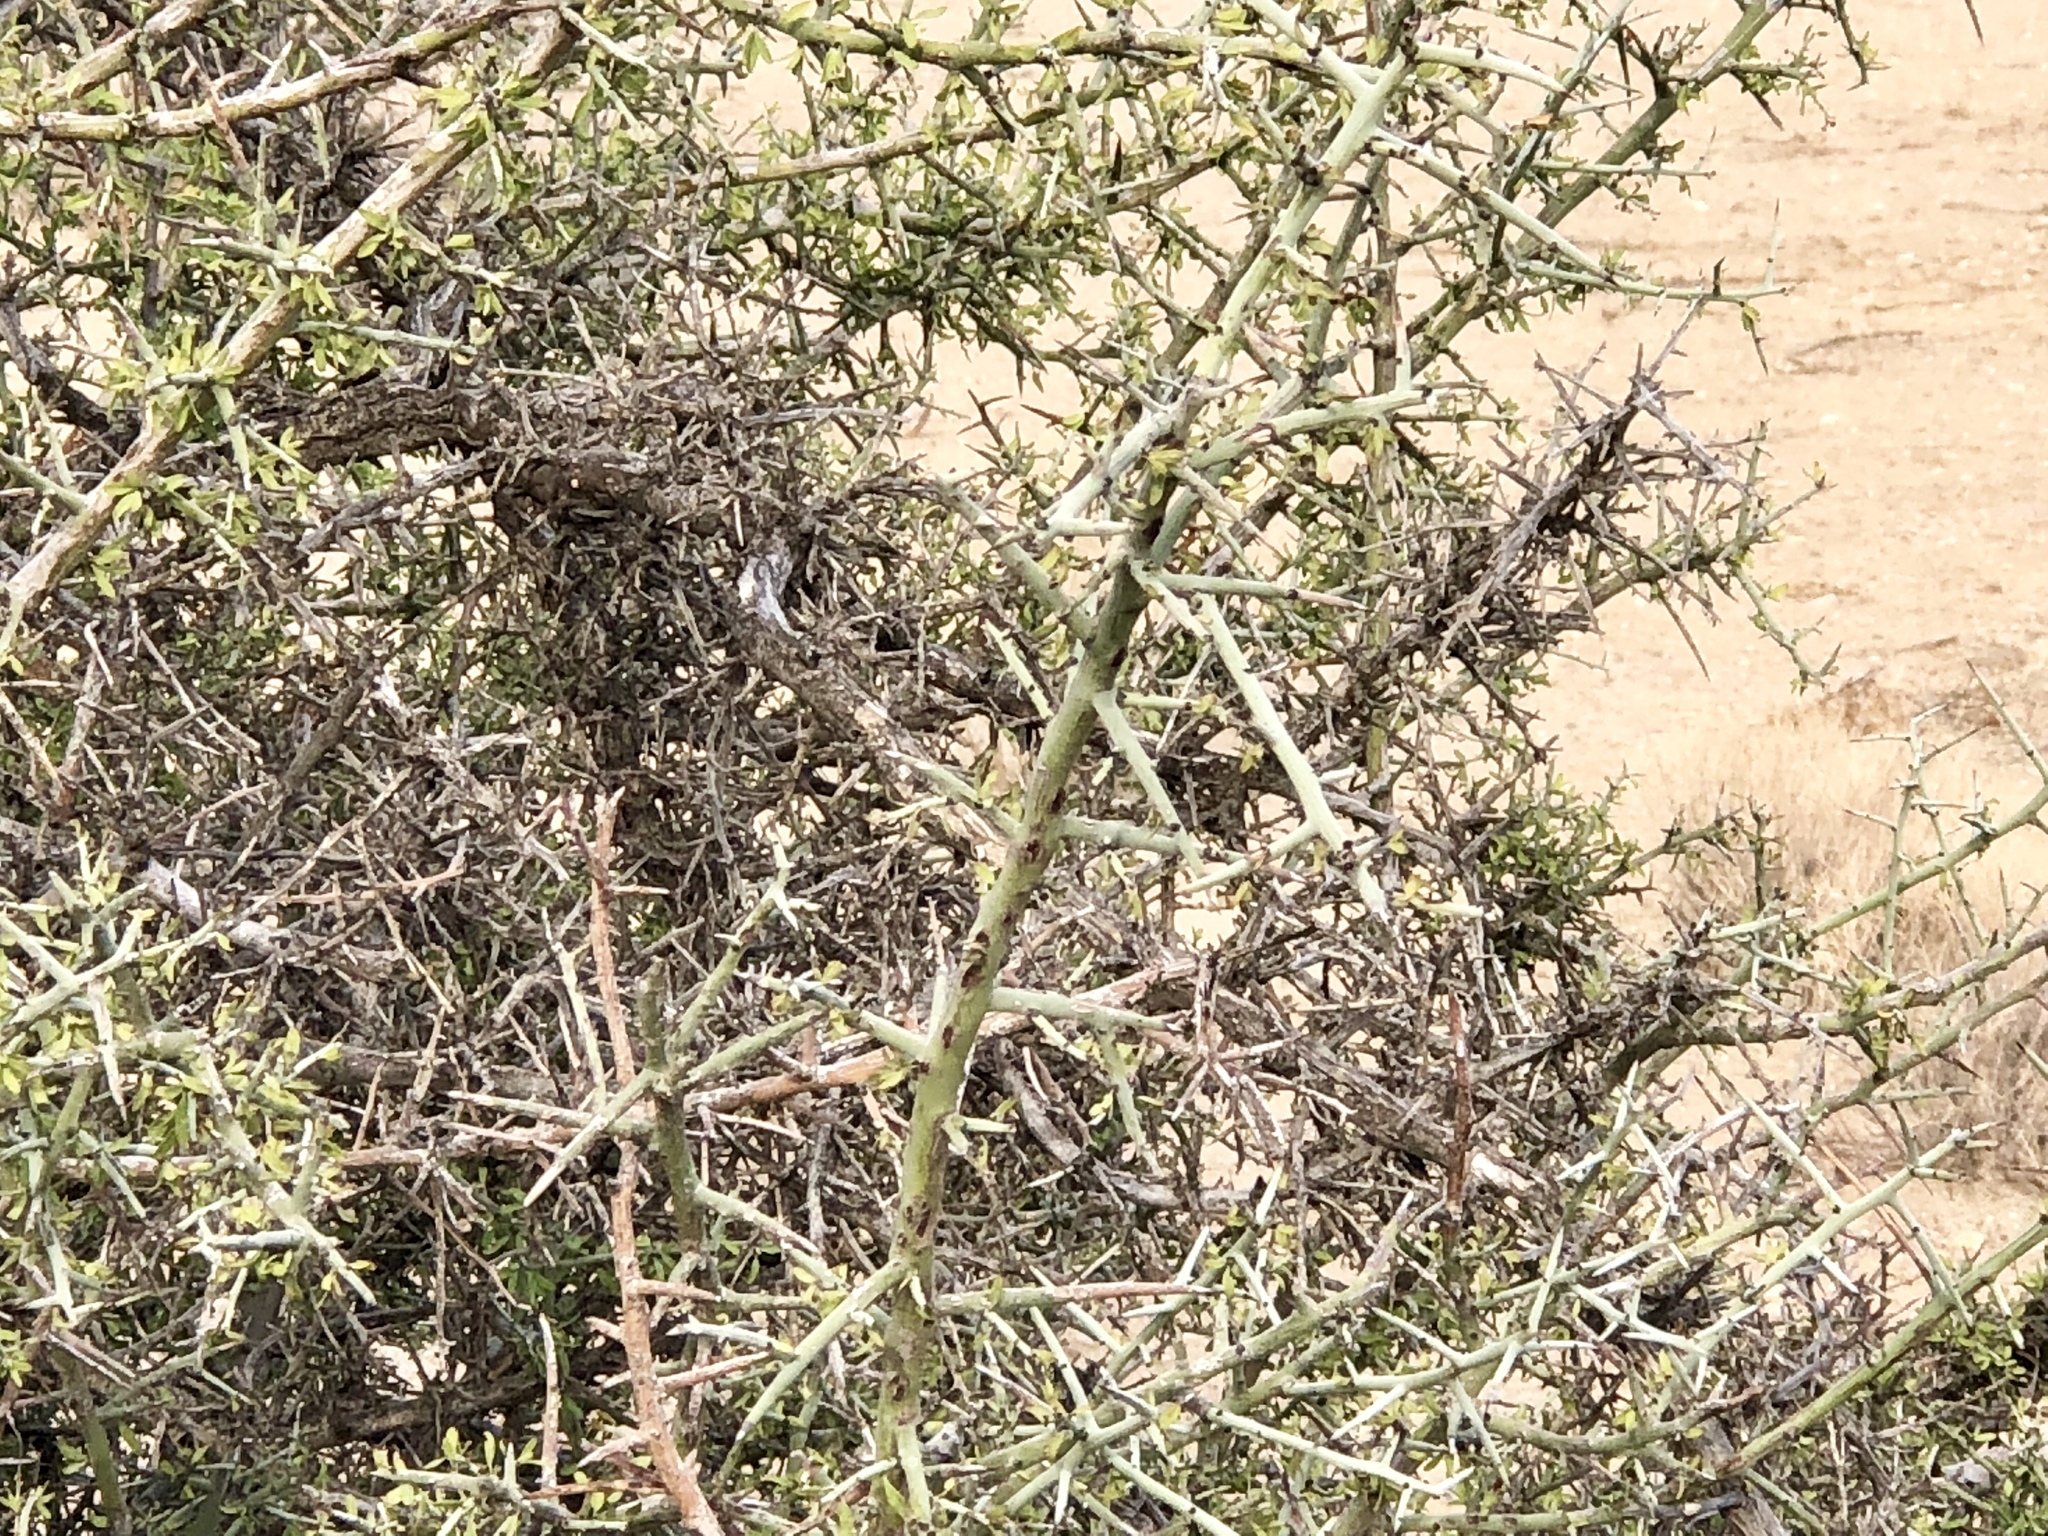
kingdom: Plantae
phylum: Tracheophyta
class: Magnoliopsida
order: Rosales
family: Rhamnaceae
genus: Sarcomphalus
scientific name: Sarcomphalus obtusifolius
